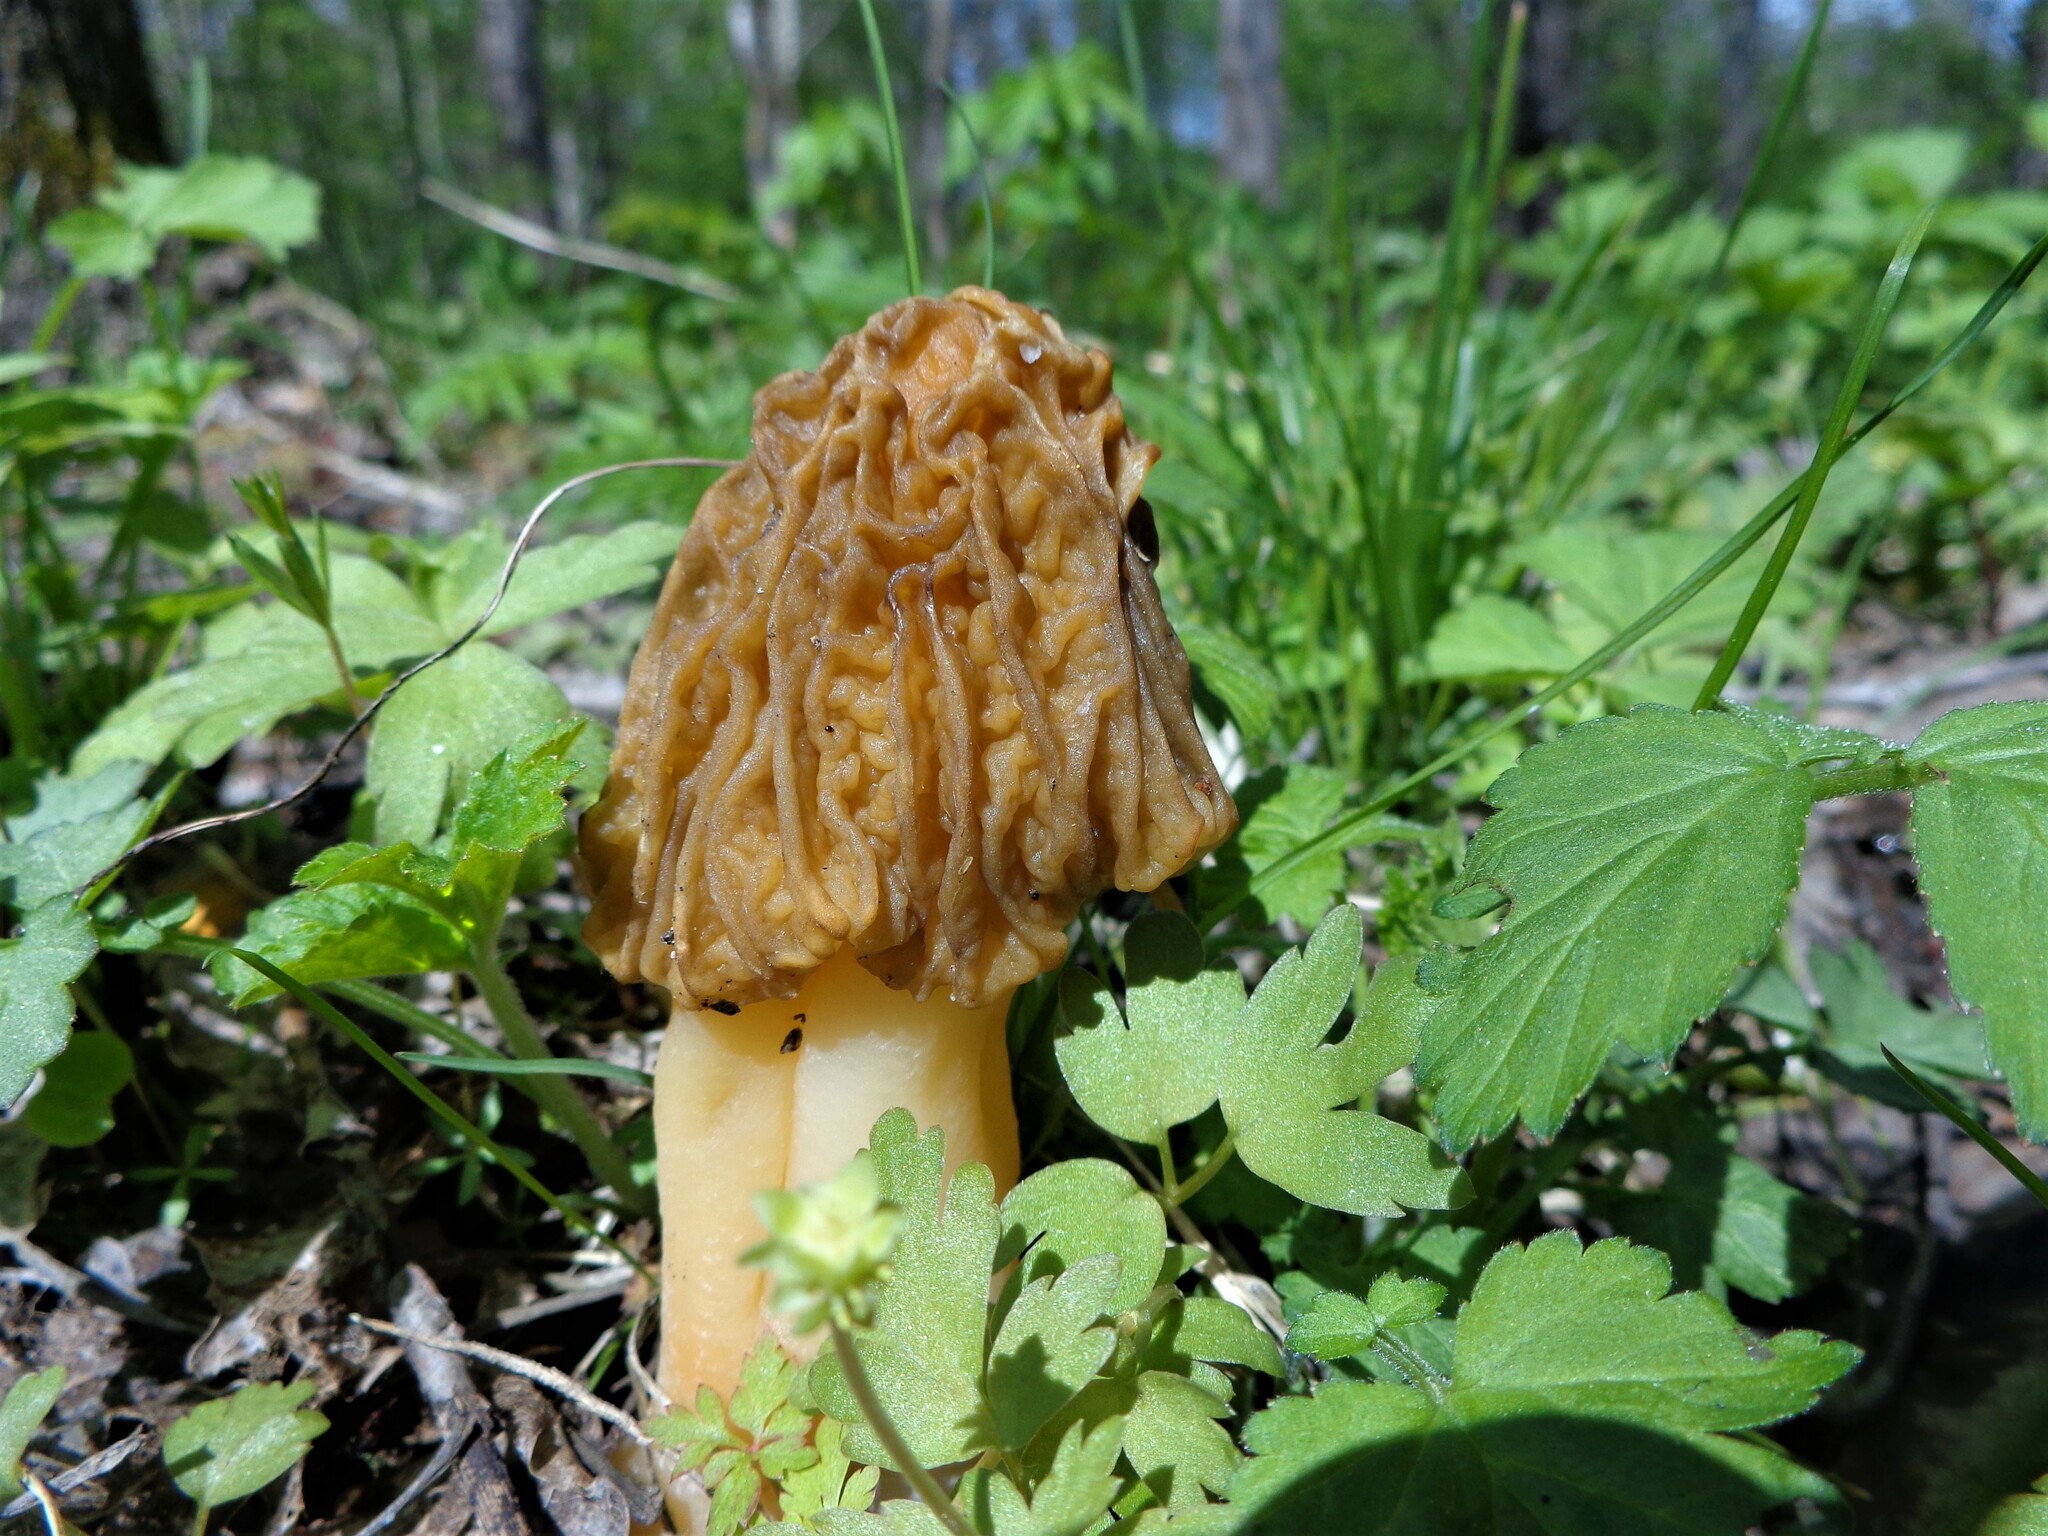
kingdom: Fungi
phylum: Ascomycota
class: Pezizomycetes
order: Pezizales
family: Morchellaceae
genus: Verpa
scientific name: Verpa bohemica
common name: Wrinkled thimble morel
